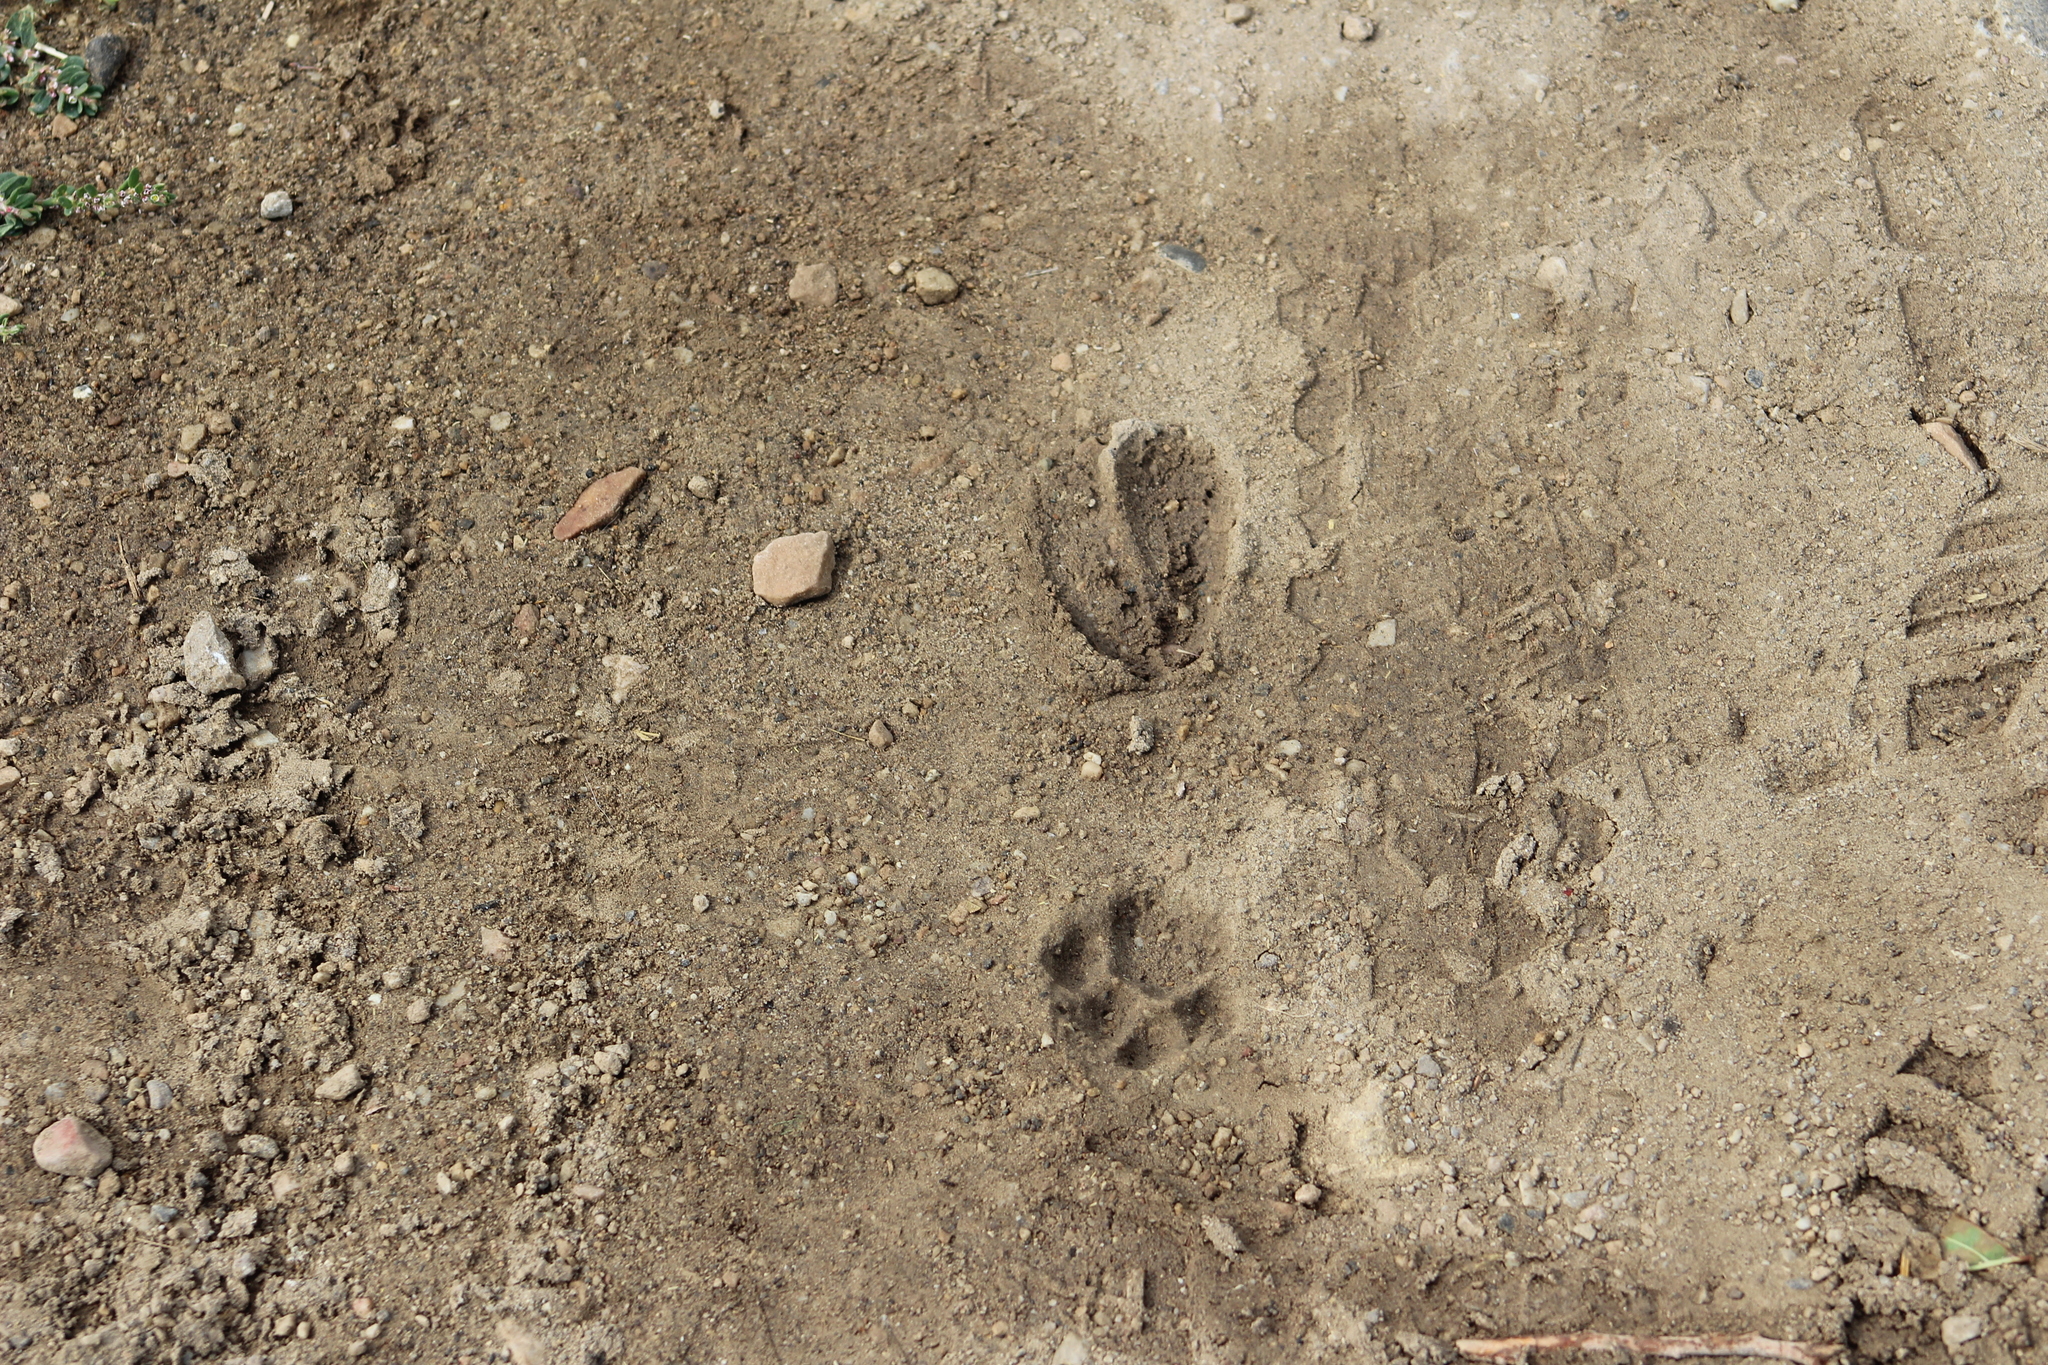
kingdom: Animalia
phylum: Chordata
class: Mammalia
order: Carnivora
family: Felidae
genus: Felis
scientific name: Felis catus
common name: Domestic cat
